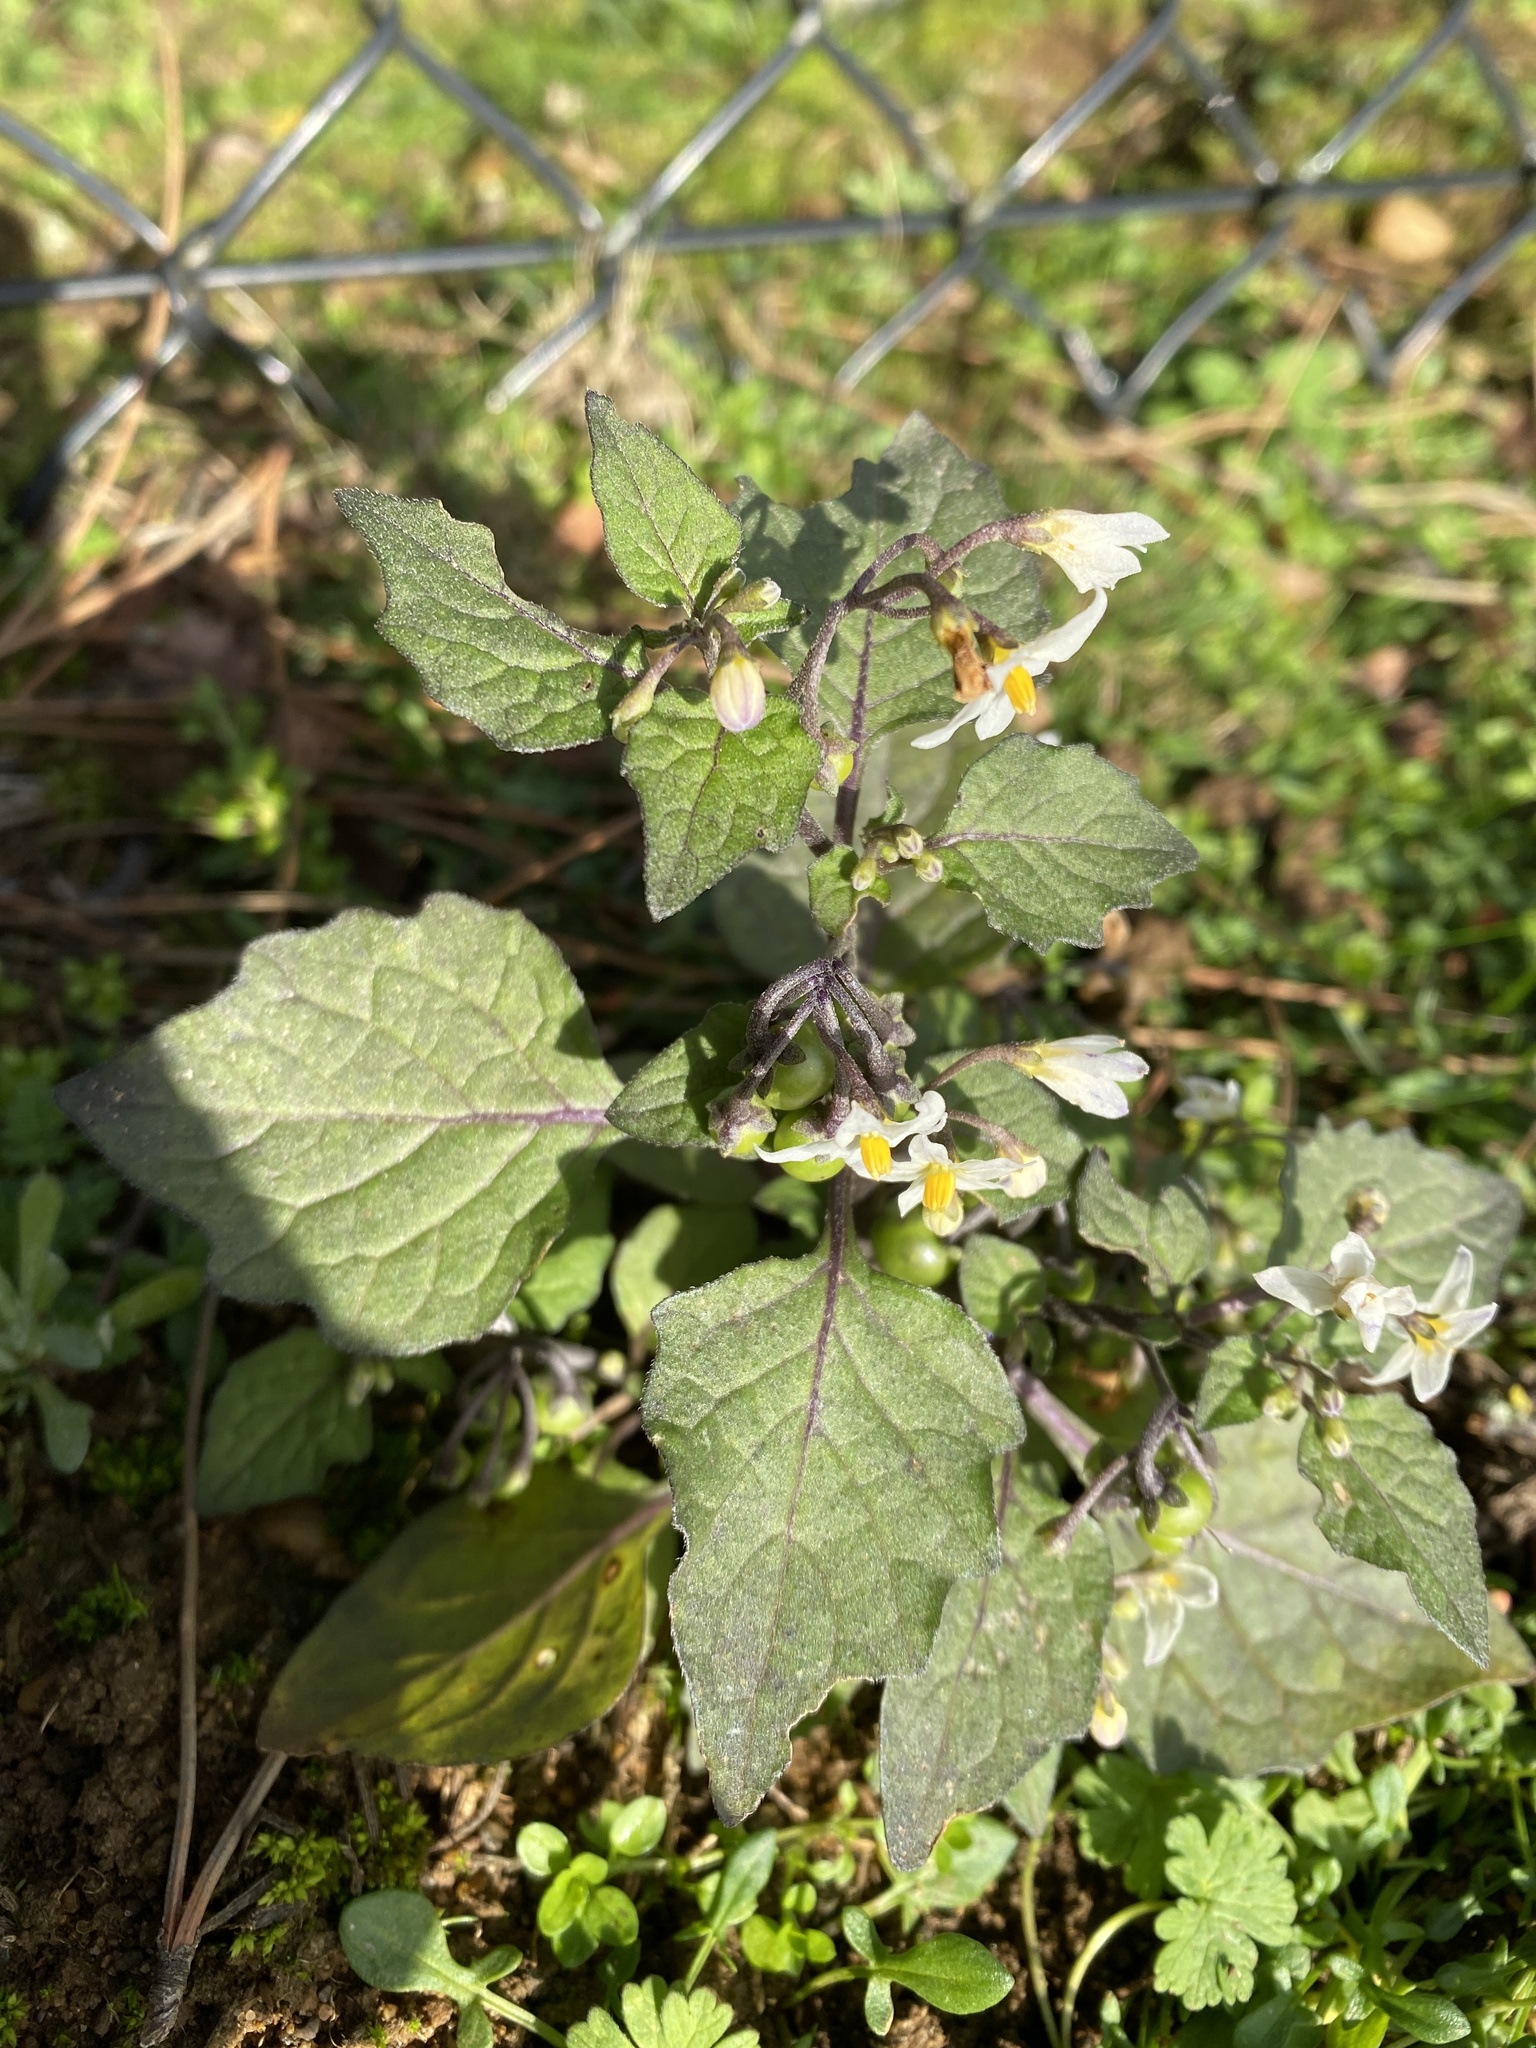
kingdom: Plantae
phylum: Tracheophyta
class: Magnoliopsida
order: Solanales
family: Solanaceae
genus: Solanum
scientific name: Solanum nigrum
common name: Black nightshade
